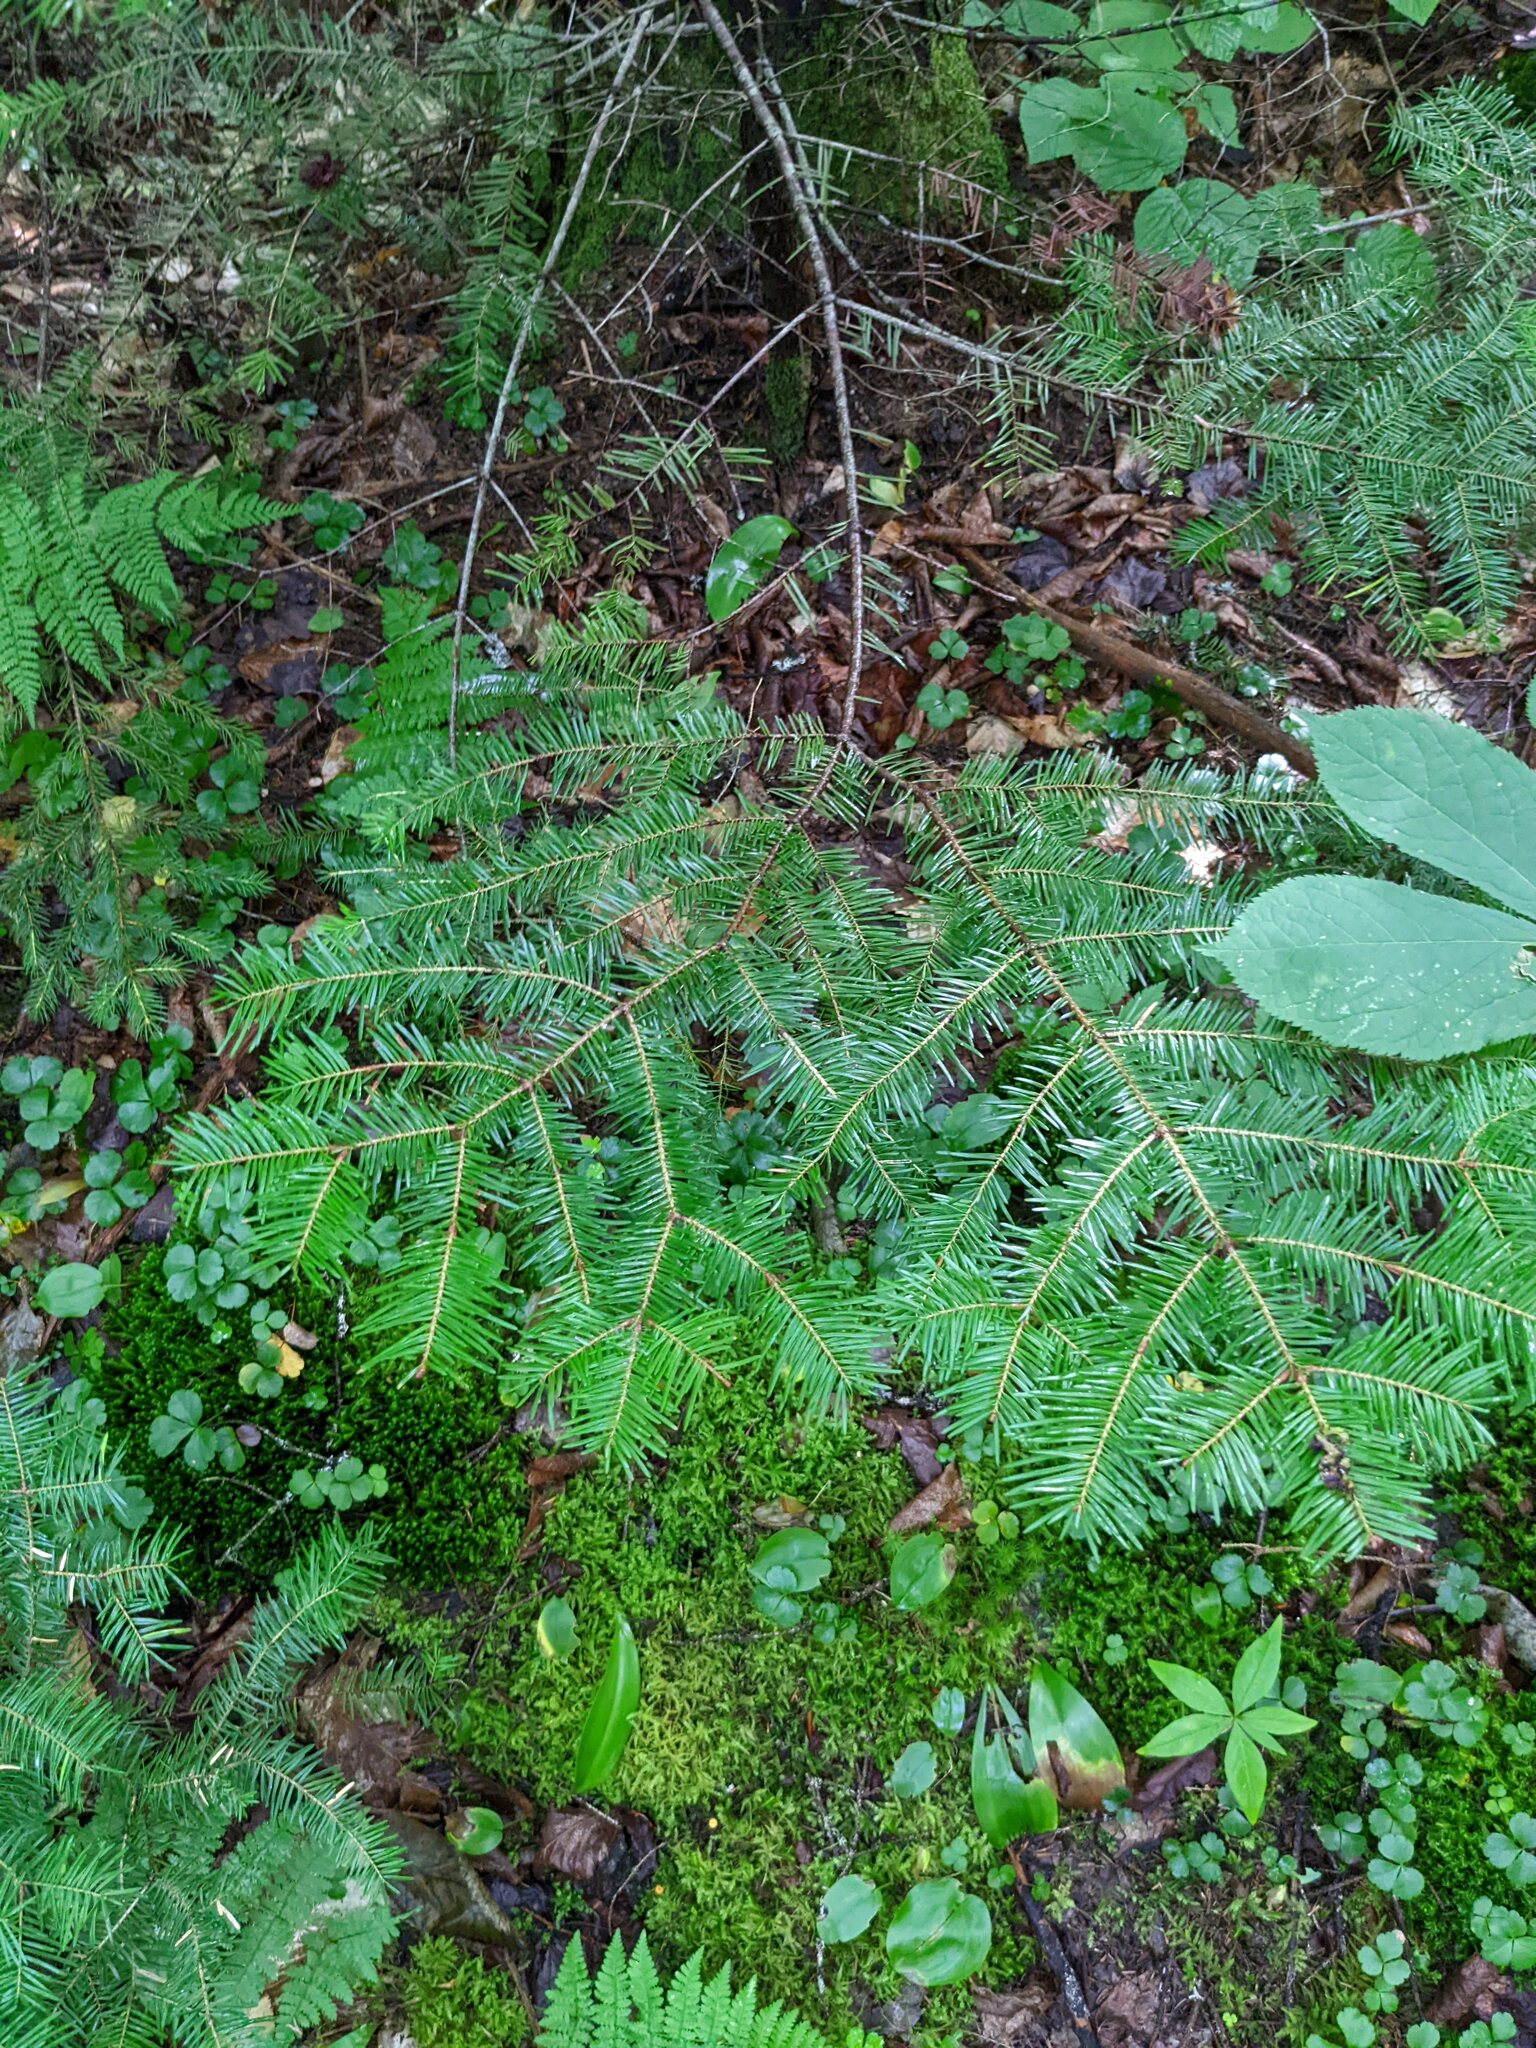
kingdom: Plantae
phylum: Tracheophyta
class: Pinopsida
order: Pinales
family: Pinaceae
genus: Abies
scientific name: Abies balsamea
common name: Balsam fir
